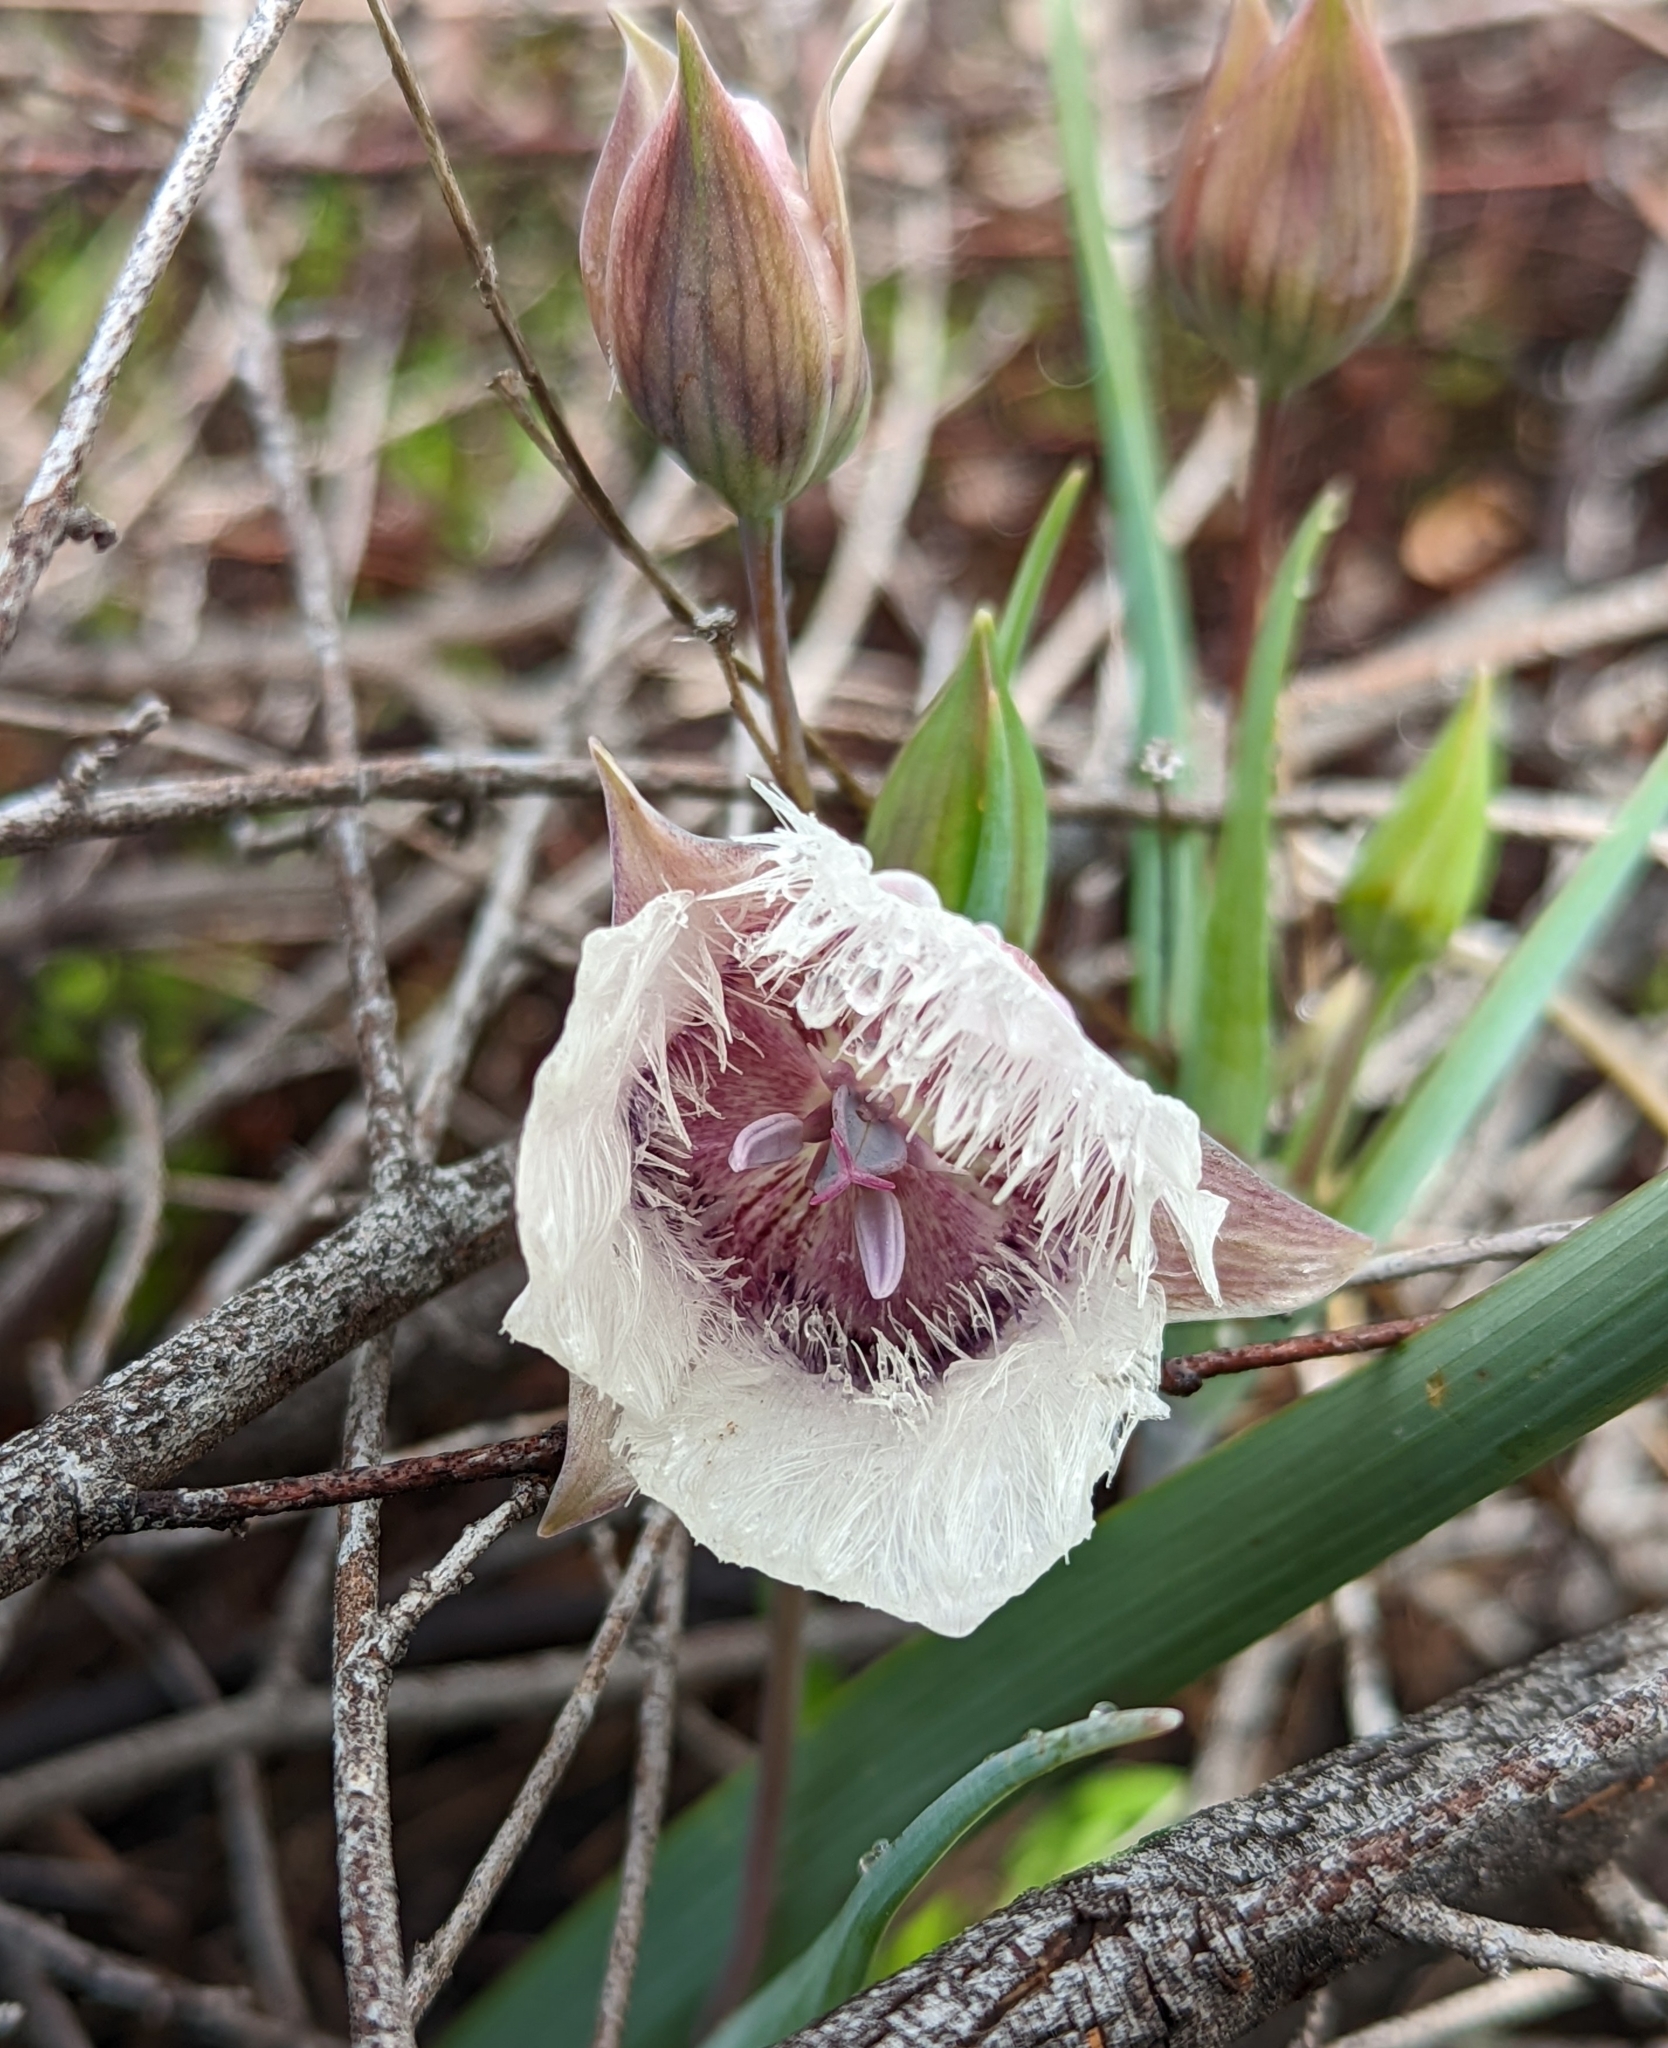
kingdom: Plantae
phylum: Tracheophyta
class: Liliopsida
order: Liliales
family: Liliaceae
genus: Calochortus
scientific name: Calochortus tolmiei
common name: Pussy-ears
